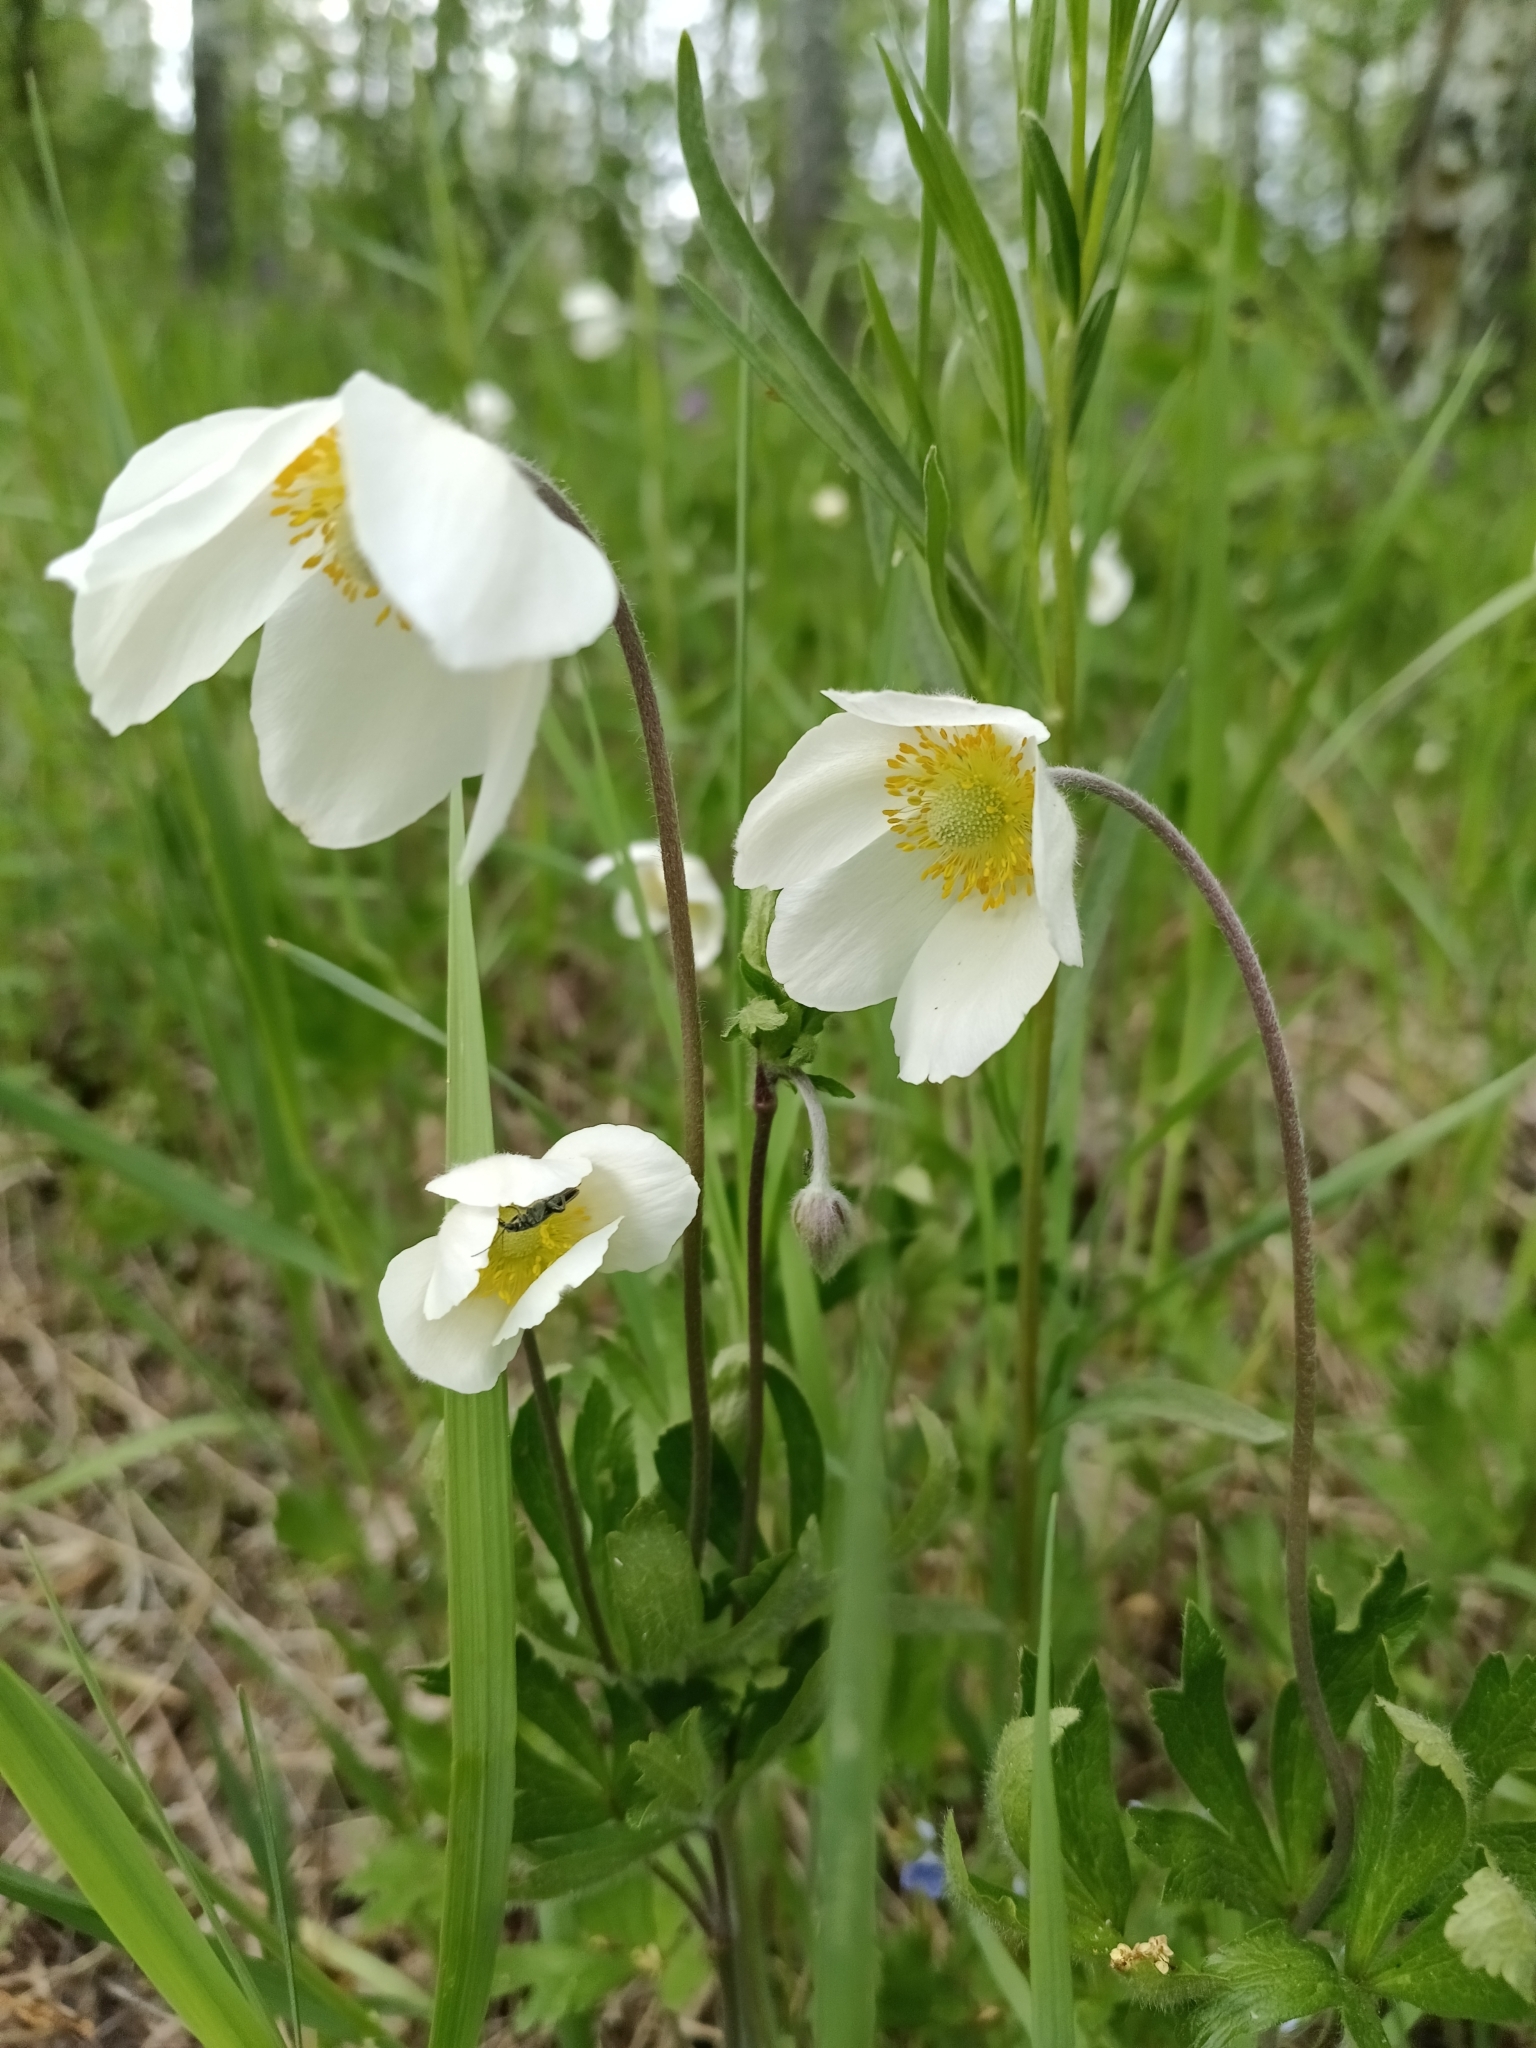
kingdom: Plantae
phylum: Tracheophyta
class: Magnoliopsida
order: Ranunculales
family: Ranunculaceae
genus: Anemone
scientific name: Anemone sylvestris
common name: Snowdrop anemone
